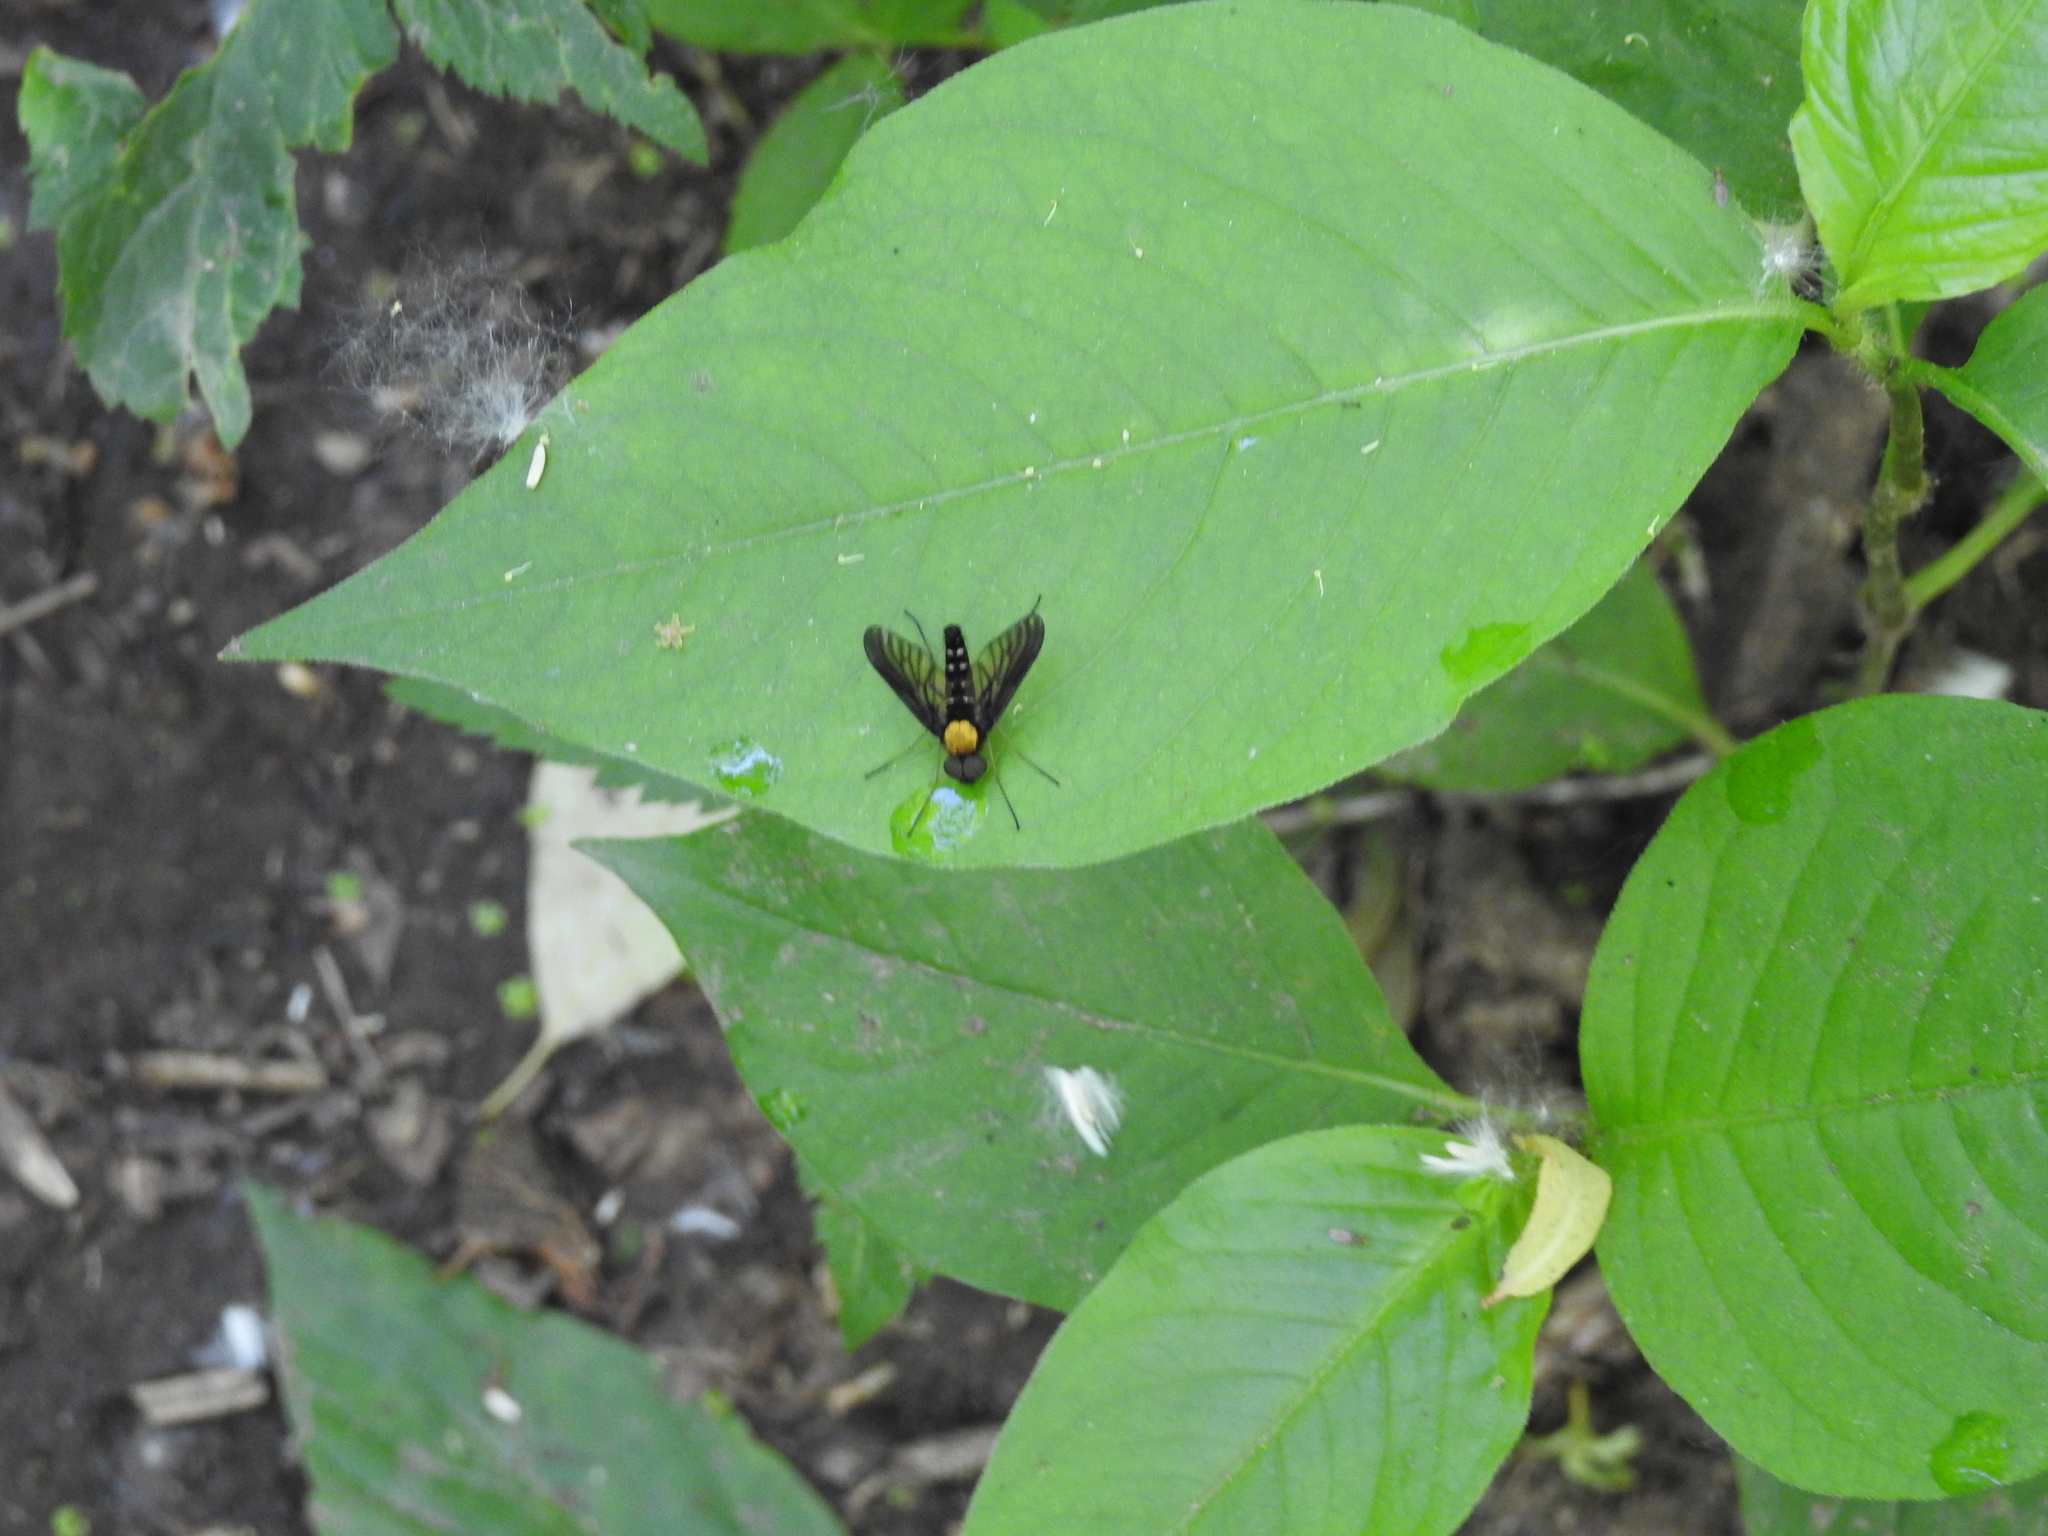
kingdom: Animalia
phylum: Arthropoda
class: Insecta
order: Diptera
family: Rhagionidae
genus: Chrysopilus
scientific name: Chrysopilus thoracicus
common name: Golden-backed snipe fly
